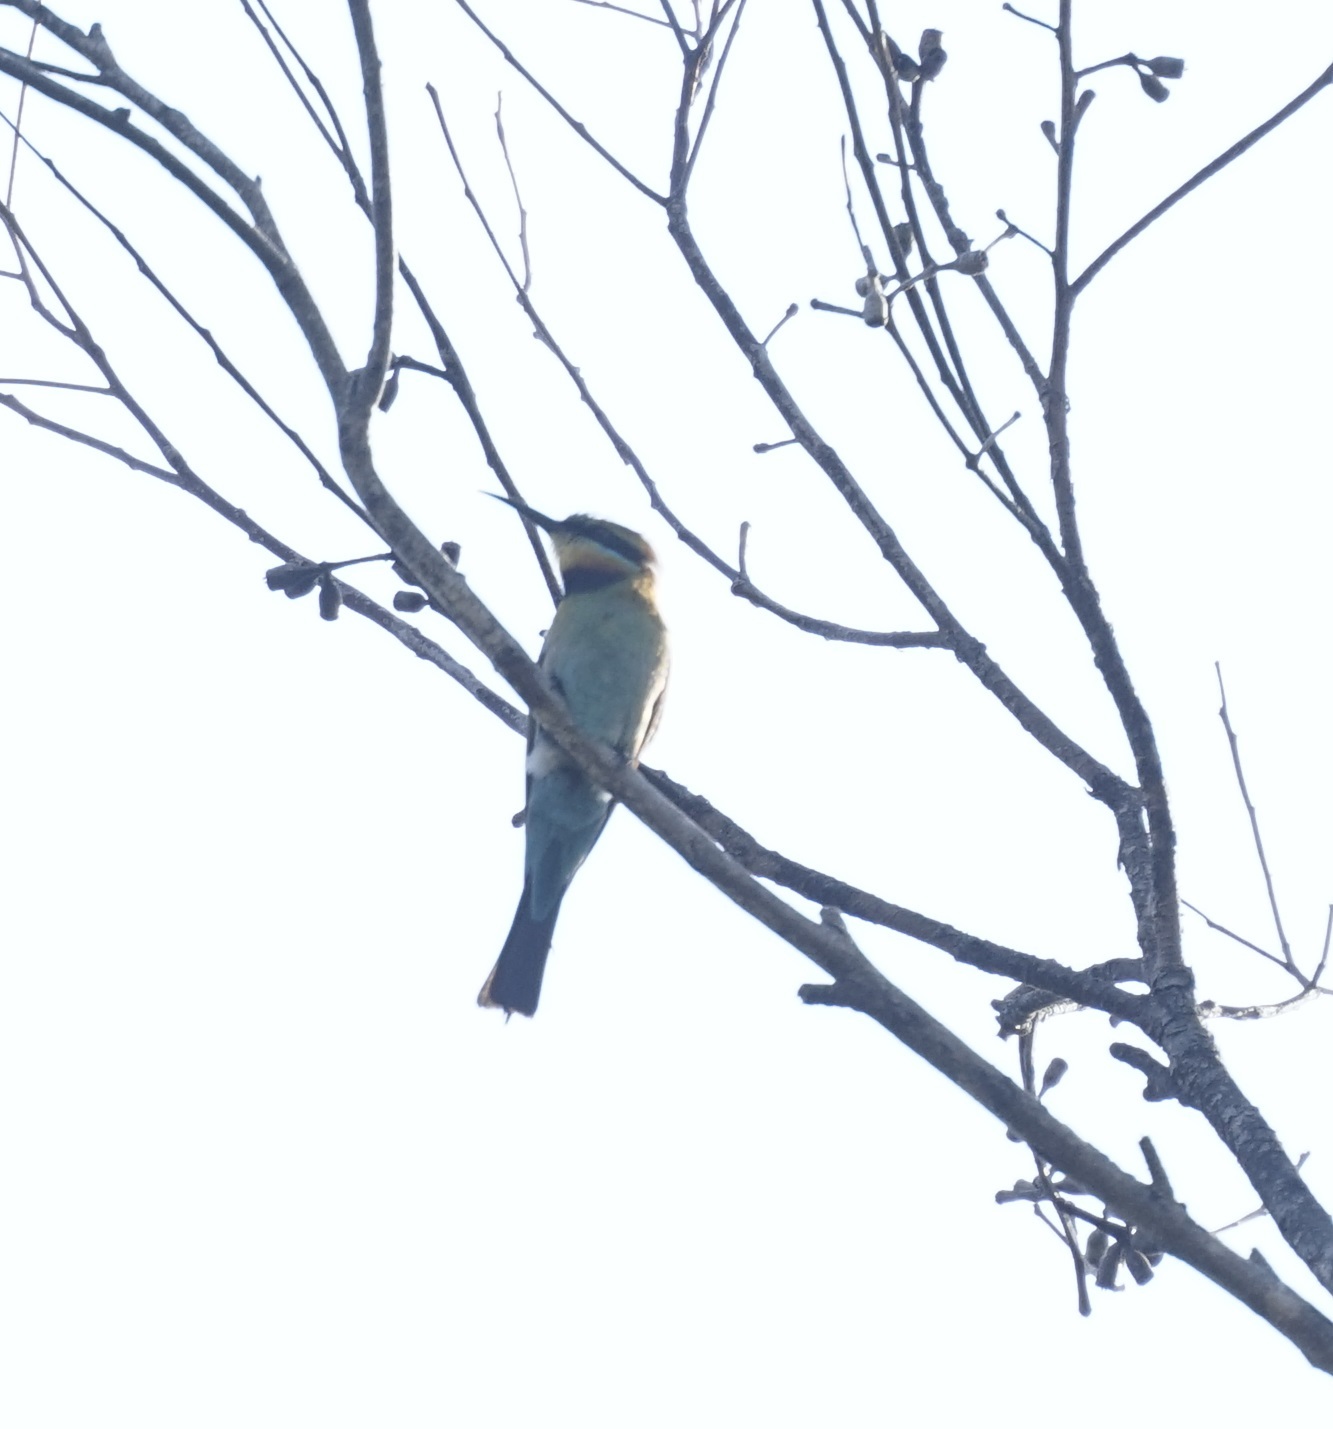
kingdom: Animalia
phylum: Chordata
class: Aves
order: Coraciiformes
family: Meropidae
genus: Merops
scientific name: Merops ornatus
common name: Rainbow bee-eater
